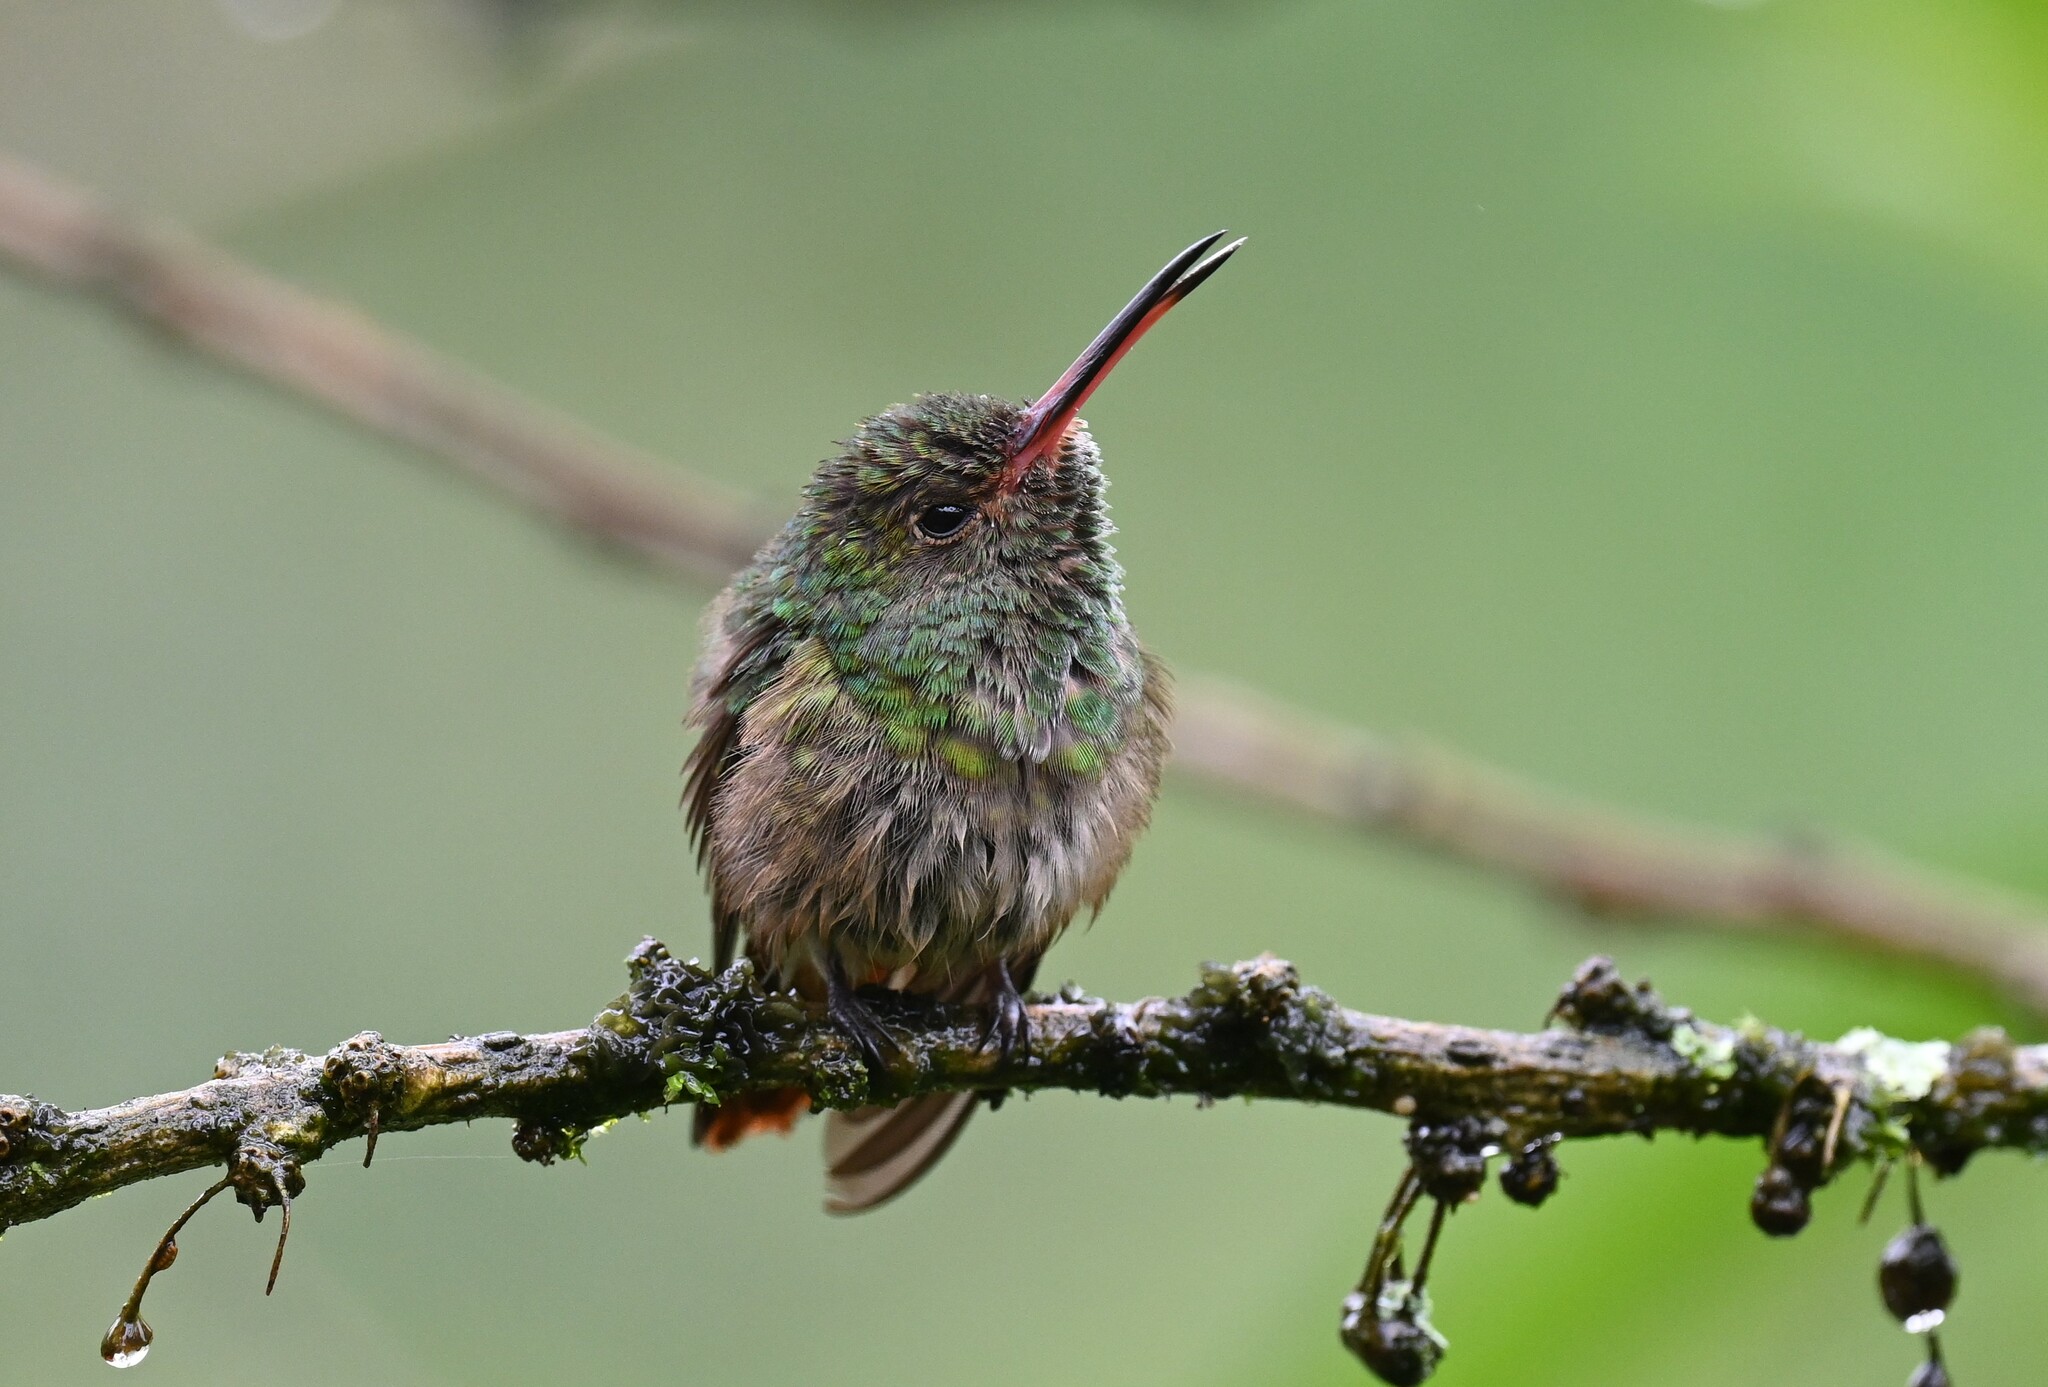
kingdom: Animalia
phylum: Chordata
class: Aves
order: Apodiformes
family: Trochilidae
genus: Amazilia
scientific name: Amazilia tzacatl
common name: Rufous-tailed hummingbird
